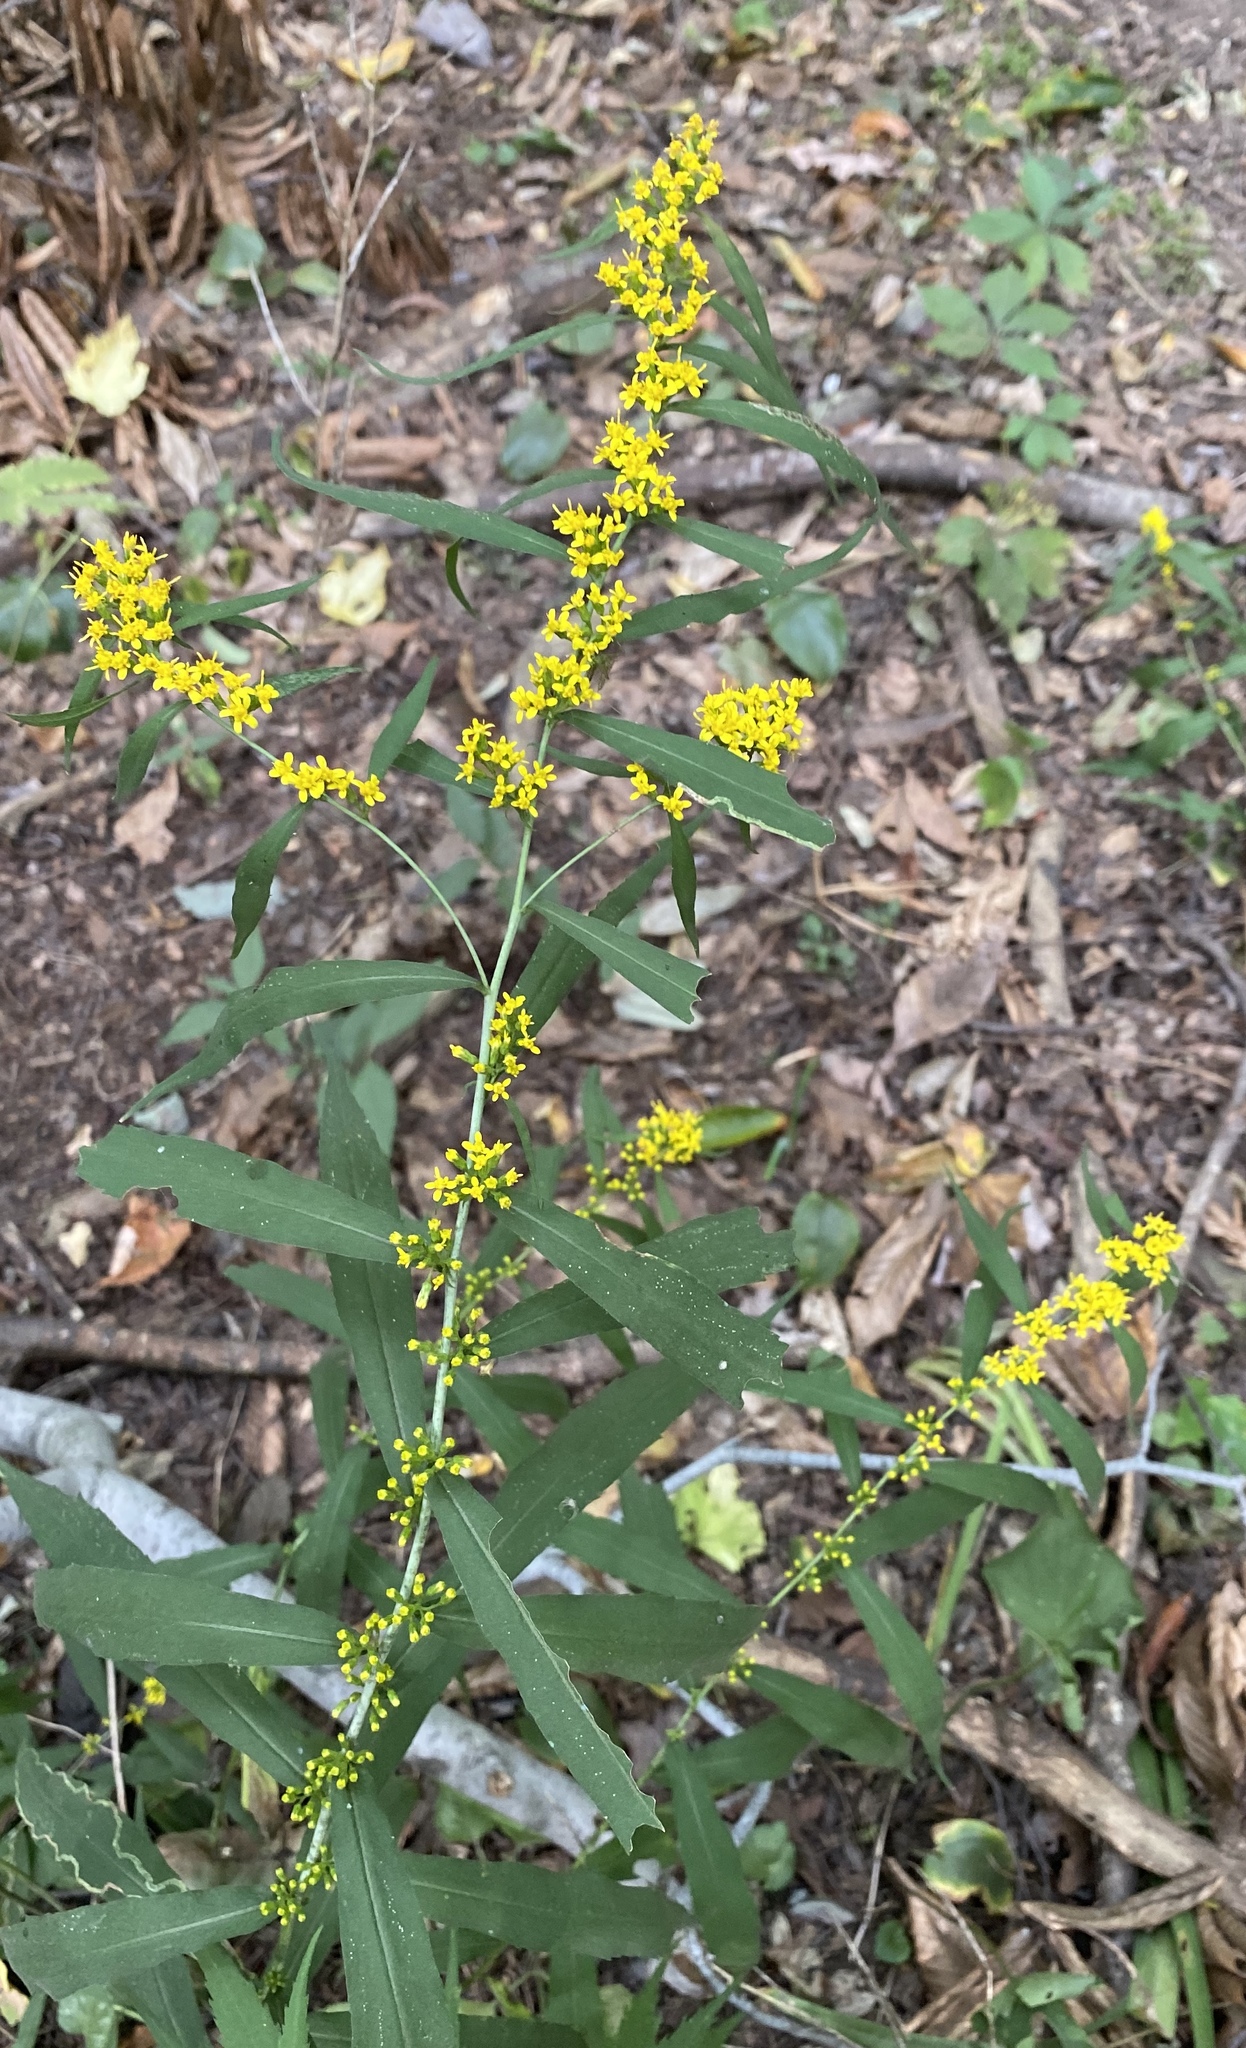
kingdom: Plantae
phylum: Tracheophyta
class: Magnoliopsida
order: Asterales
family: Asteraceae
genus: Solidago
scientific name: Solidago caesia
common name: Woodland goldenrod
